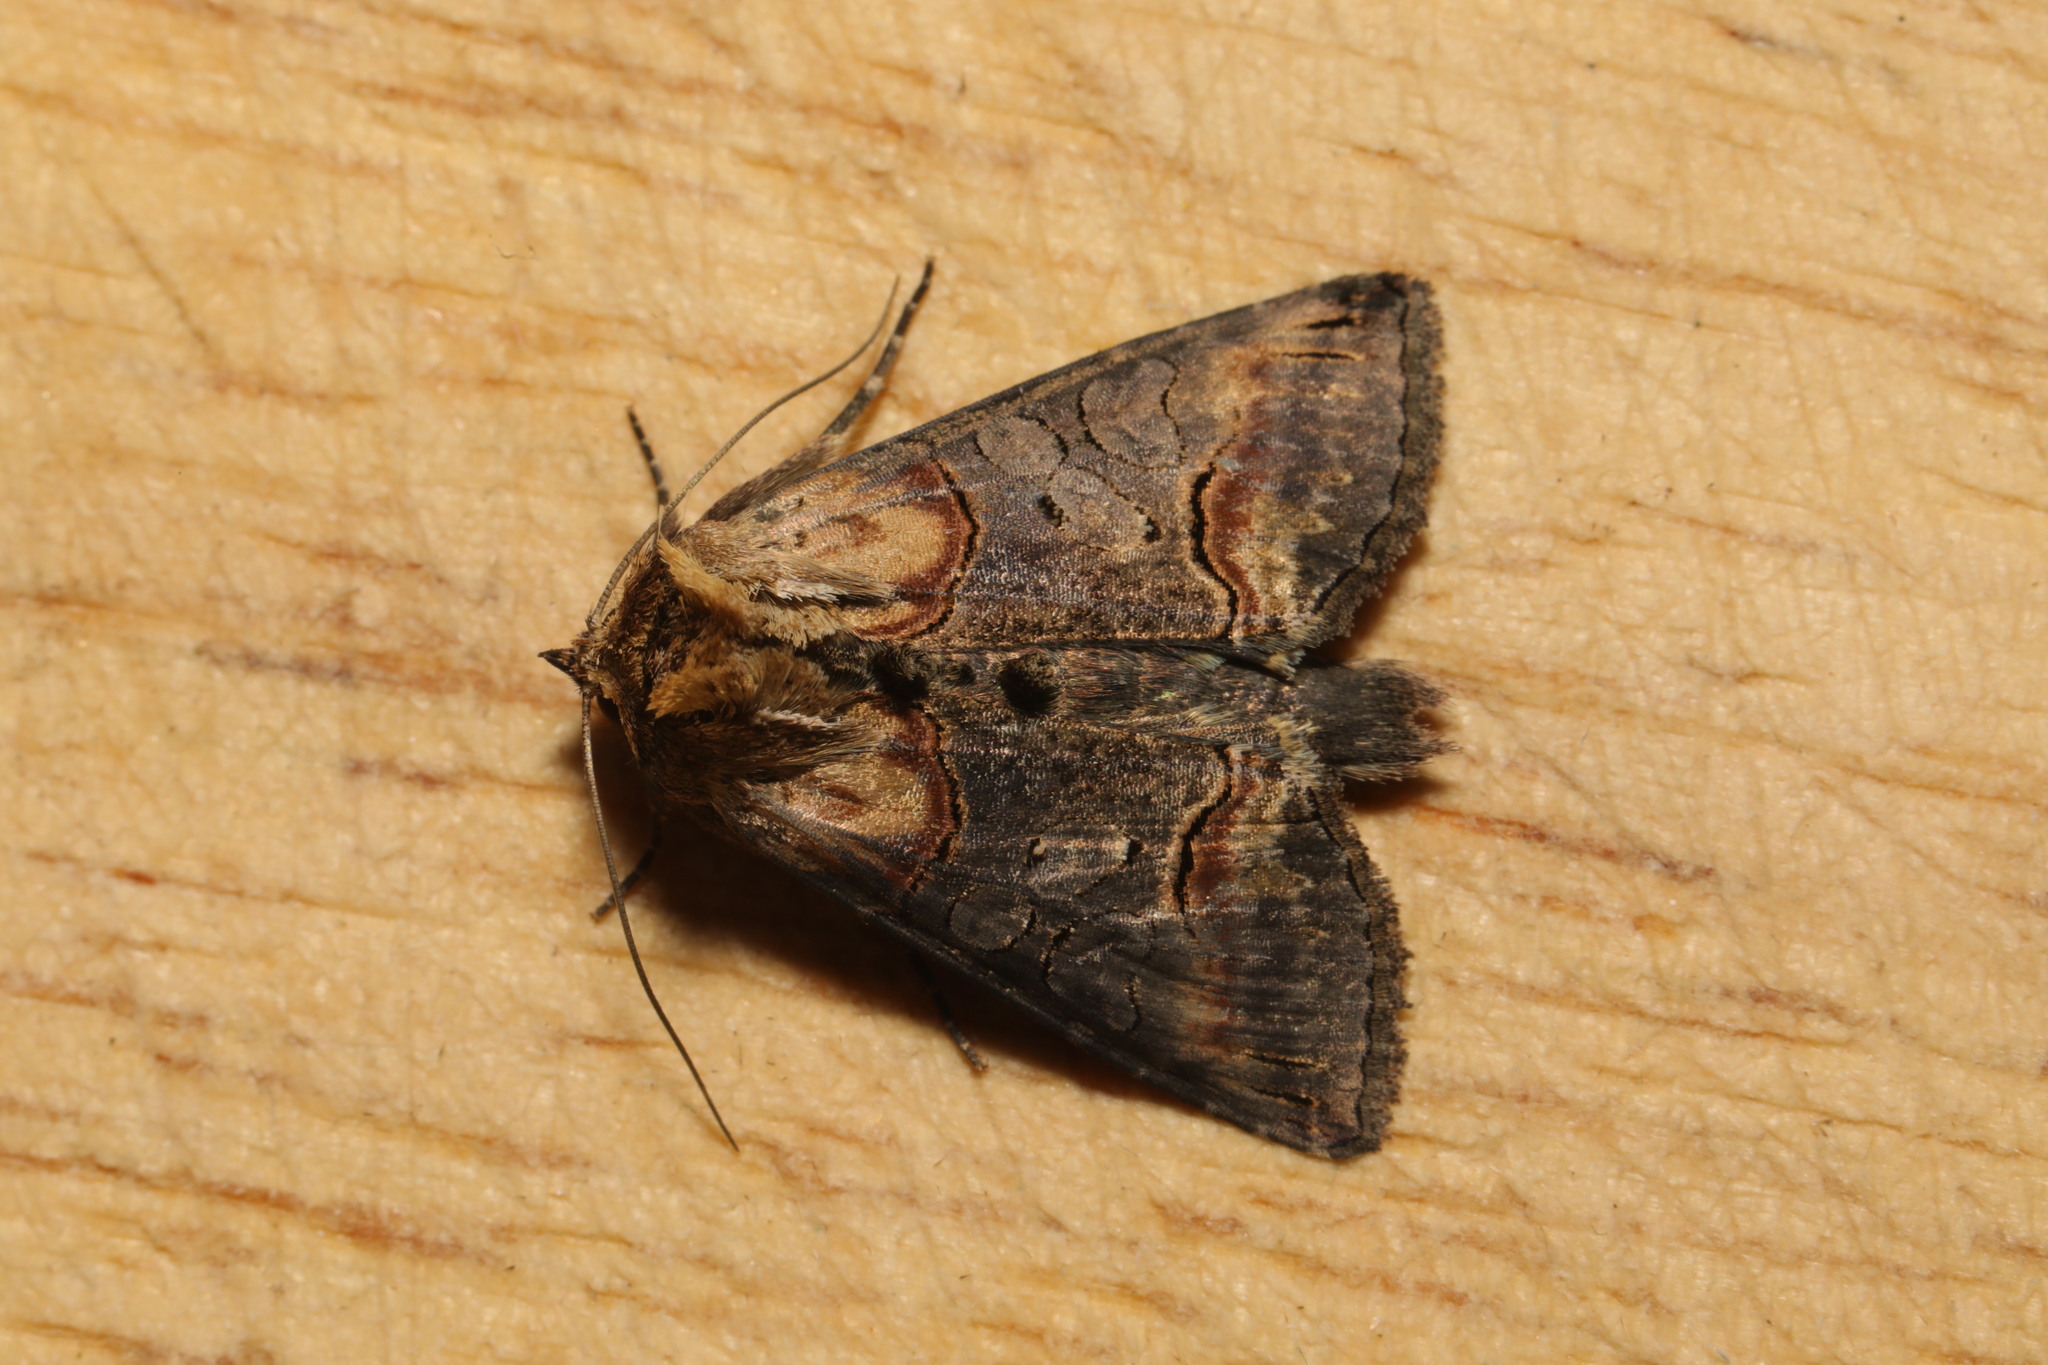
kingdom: Animalia
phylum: Arthropoda
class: Insecta
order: Lepidoptera
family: Noctuidae
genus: Abrostola
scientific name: Abrostola triplasia
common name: Dark spectacle
